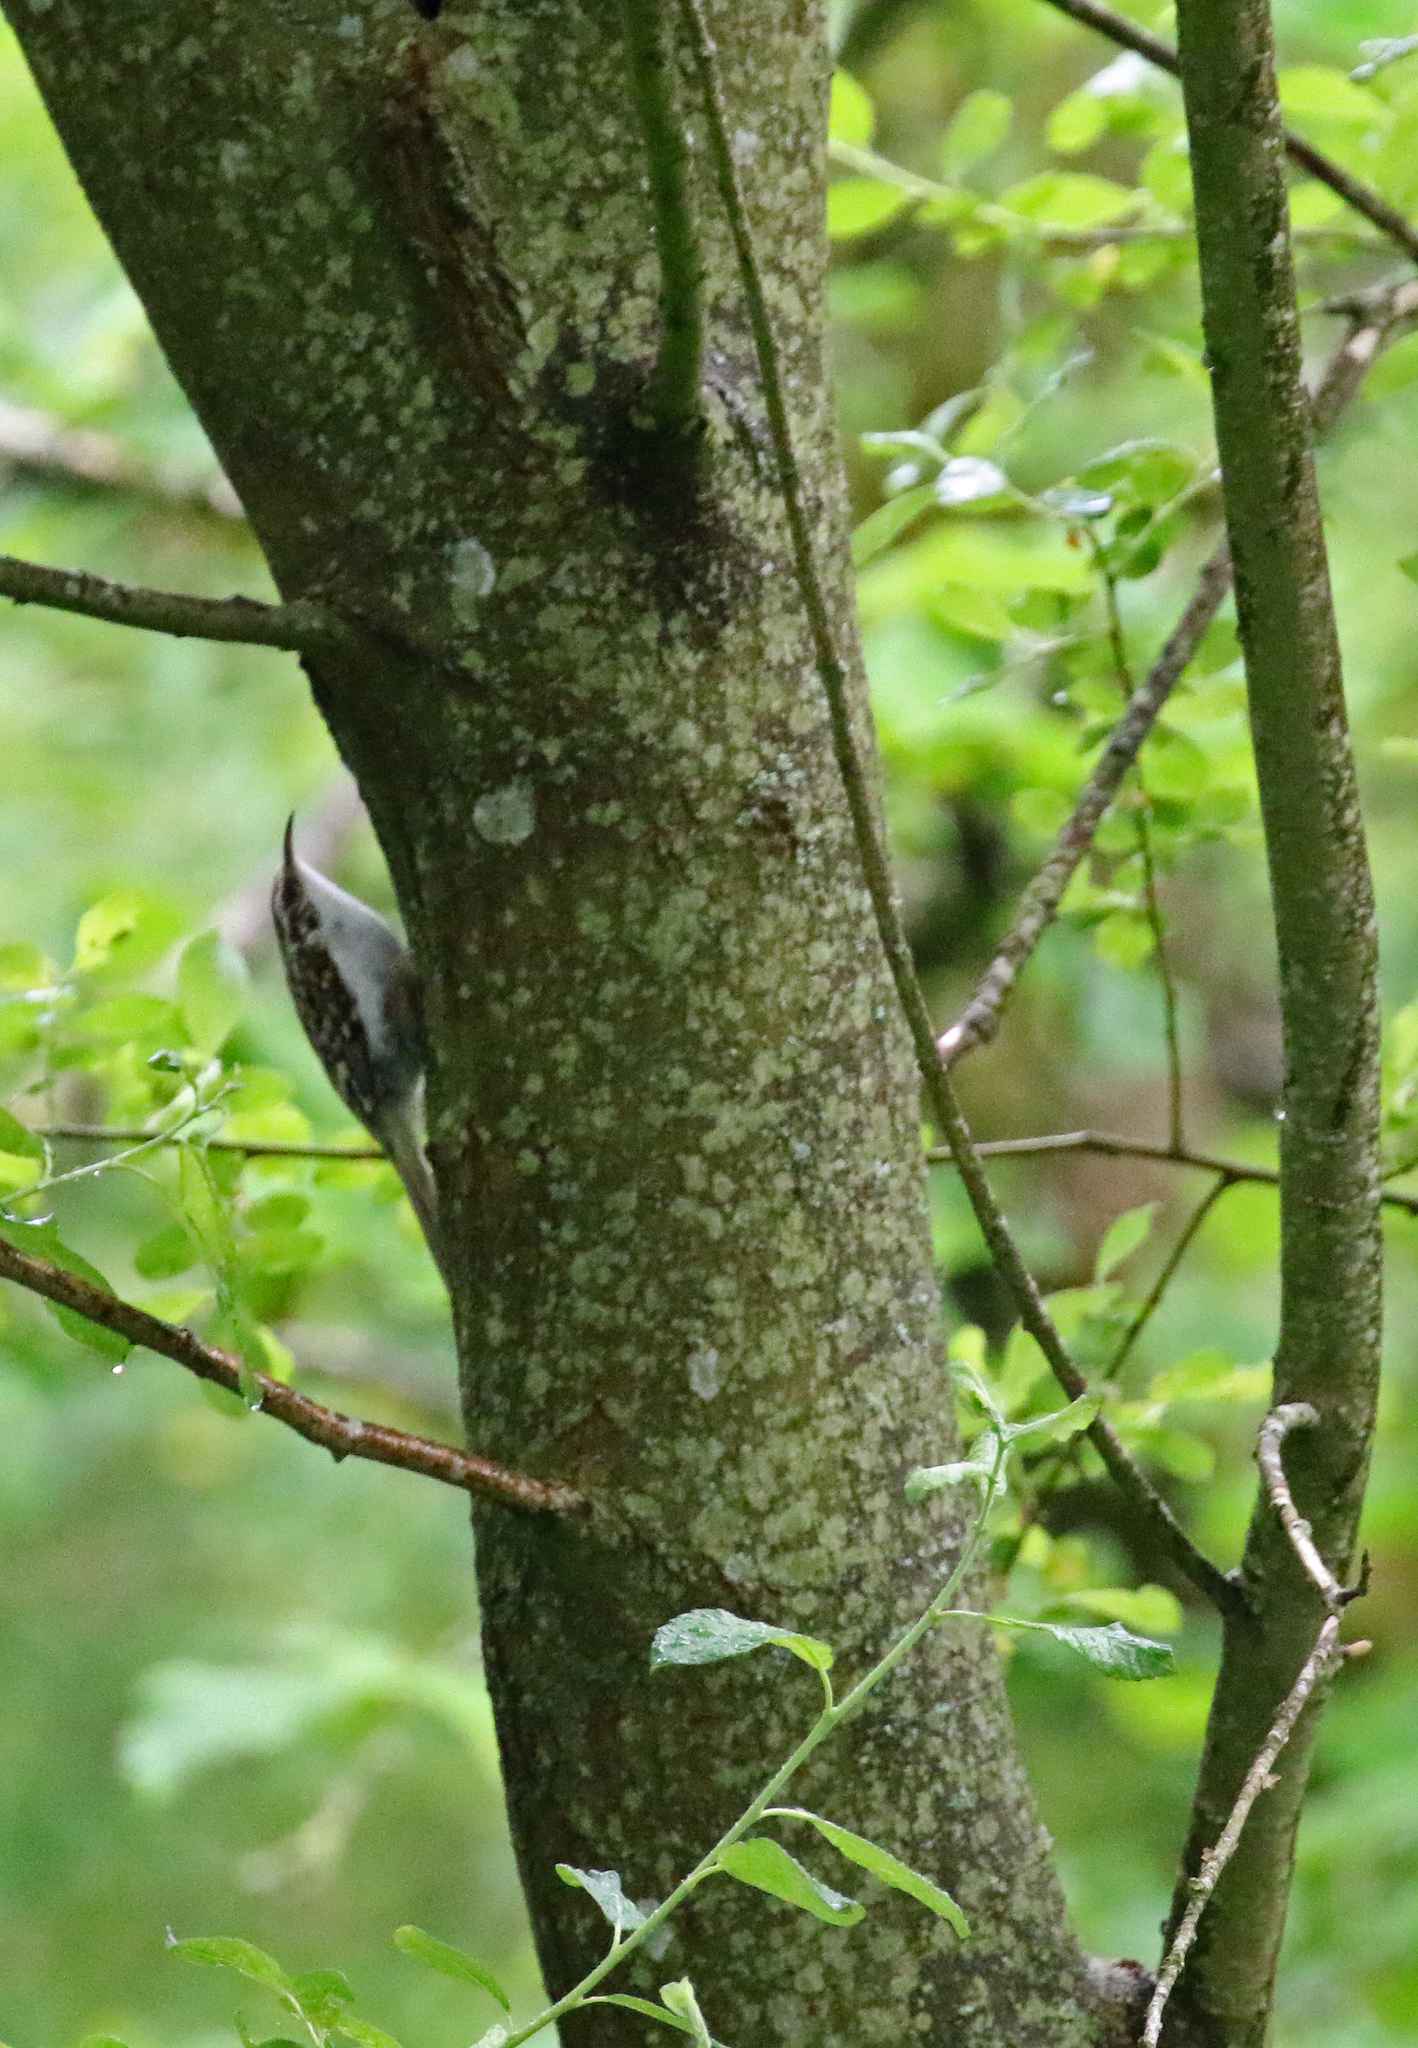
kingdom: Animalia
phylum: Chordata
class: Aves
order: Passeriformes
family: Certhiidae
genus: Certhia
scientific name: Certhia familiaris
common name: Eurasian treecreeper
